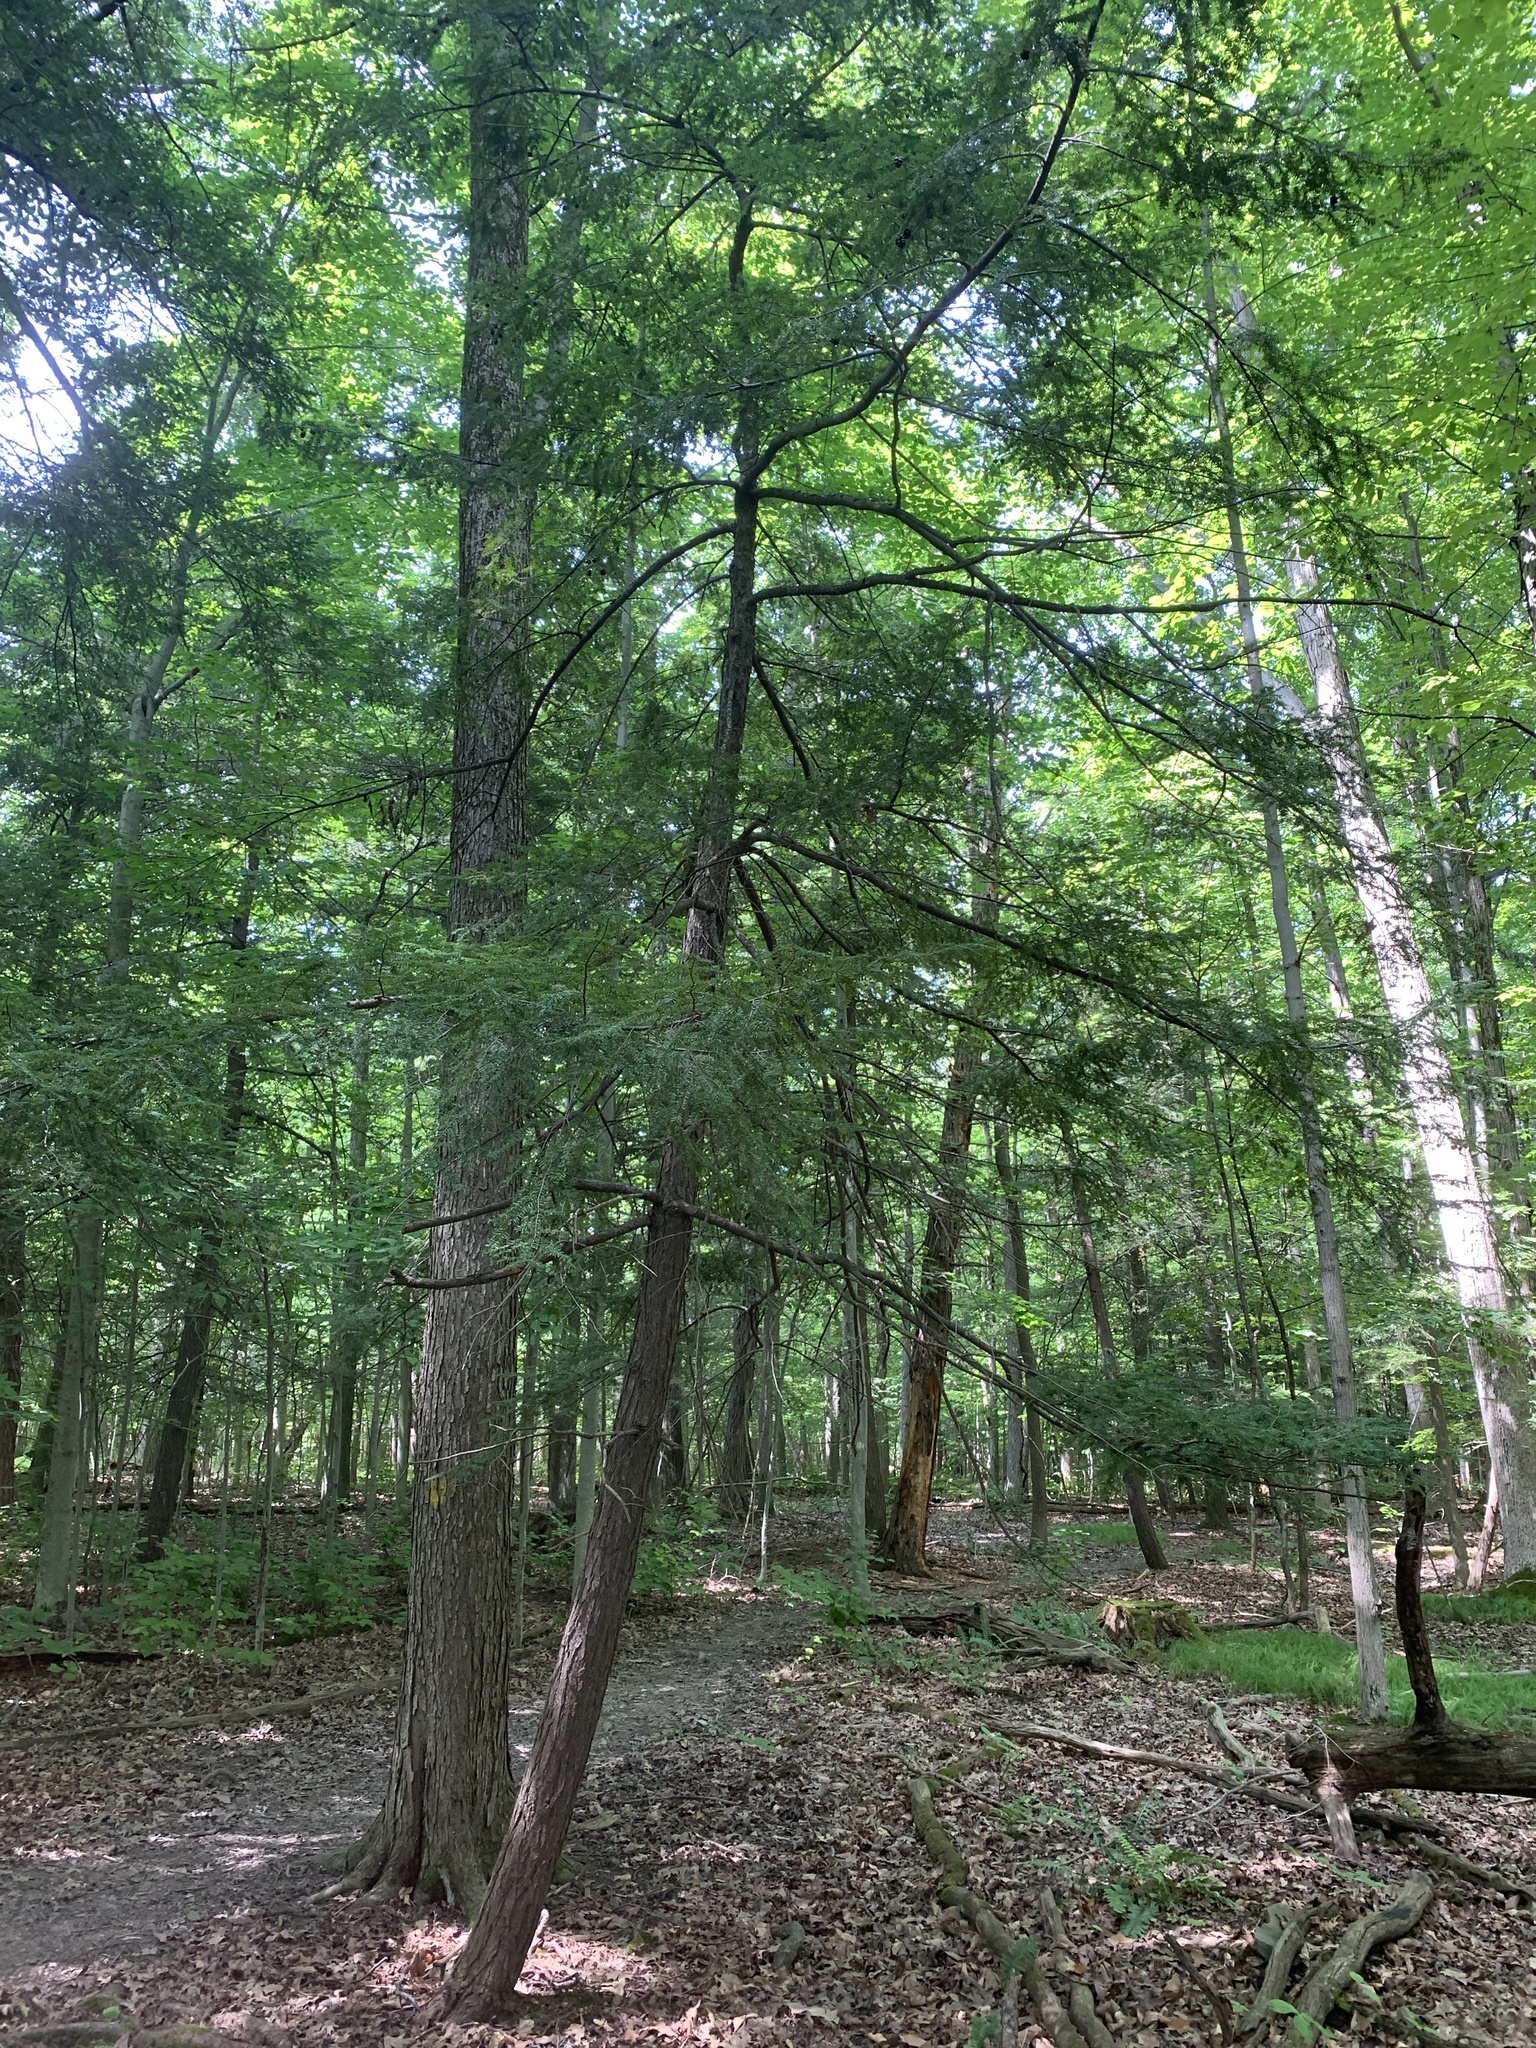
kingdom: Plantae
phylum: Tracheophyta
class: Pinopsida
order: Pinales
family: Pinaceae
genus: Tsuga
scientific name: Tsuga canadensis
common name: Eastern hemlock
